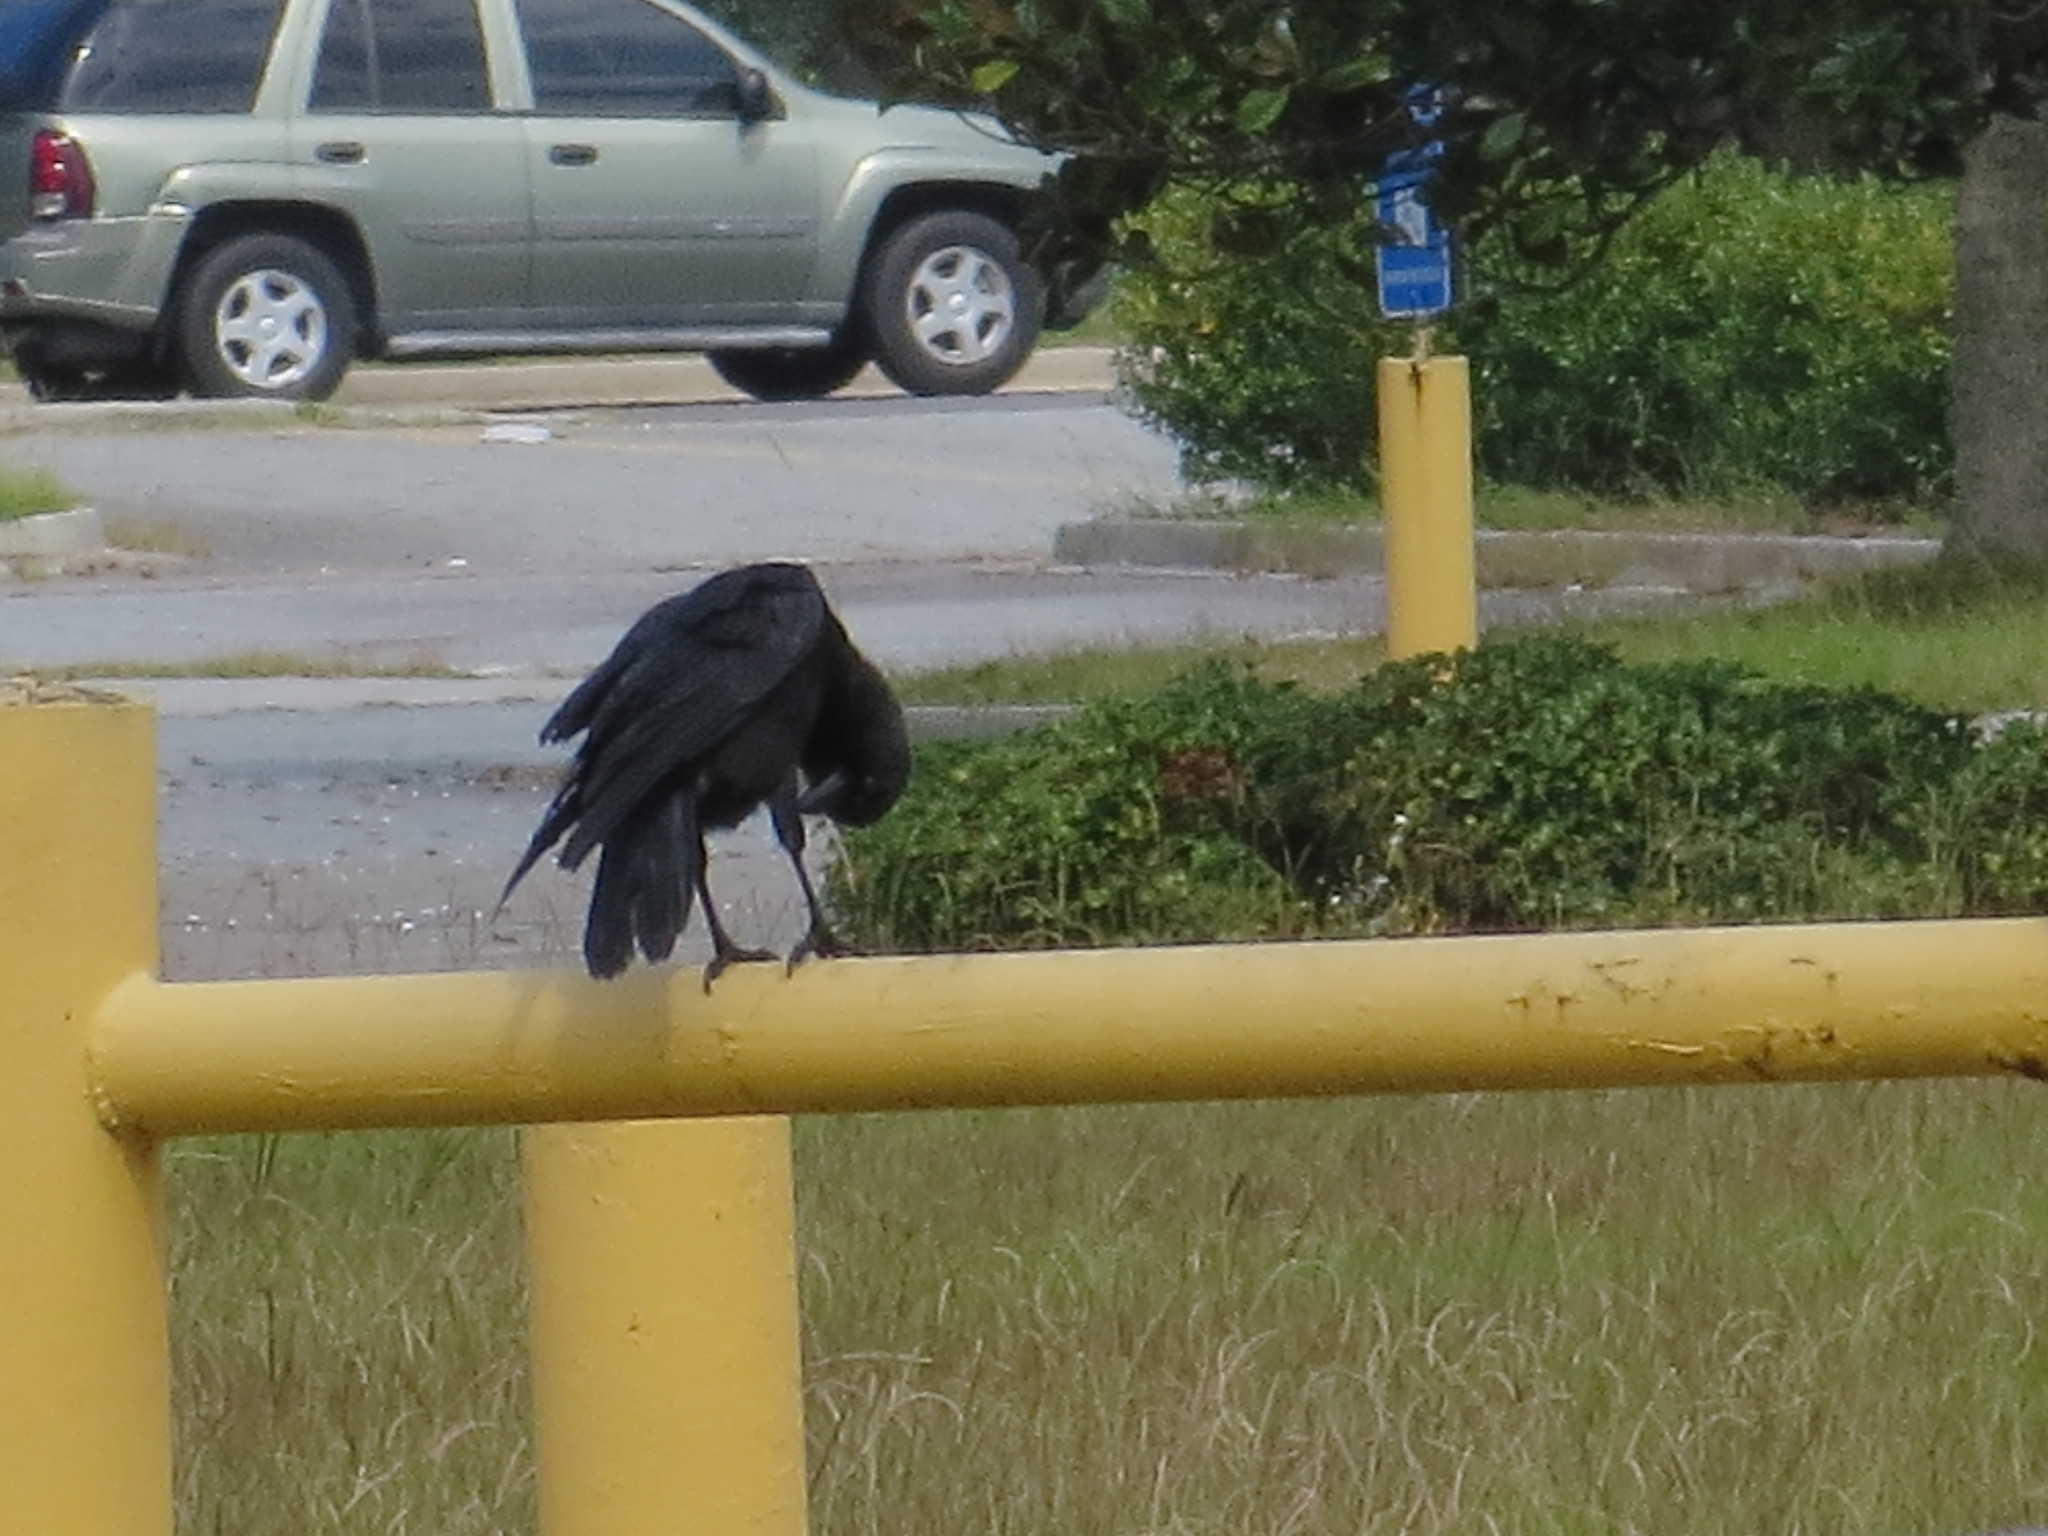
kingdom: Animalia
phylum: Chordata
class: Aves
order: Passeriformes
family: Corvidae
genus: Corvus
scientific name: Corvus brachyrhynchos
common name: American crow
